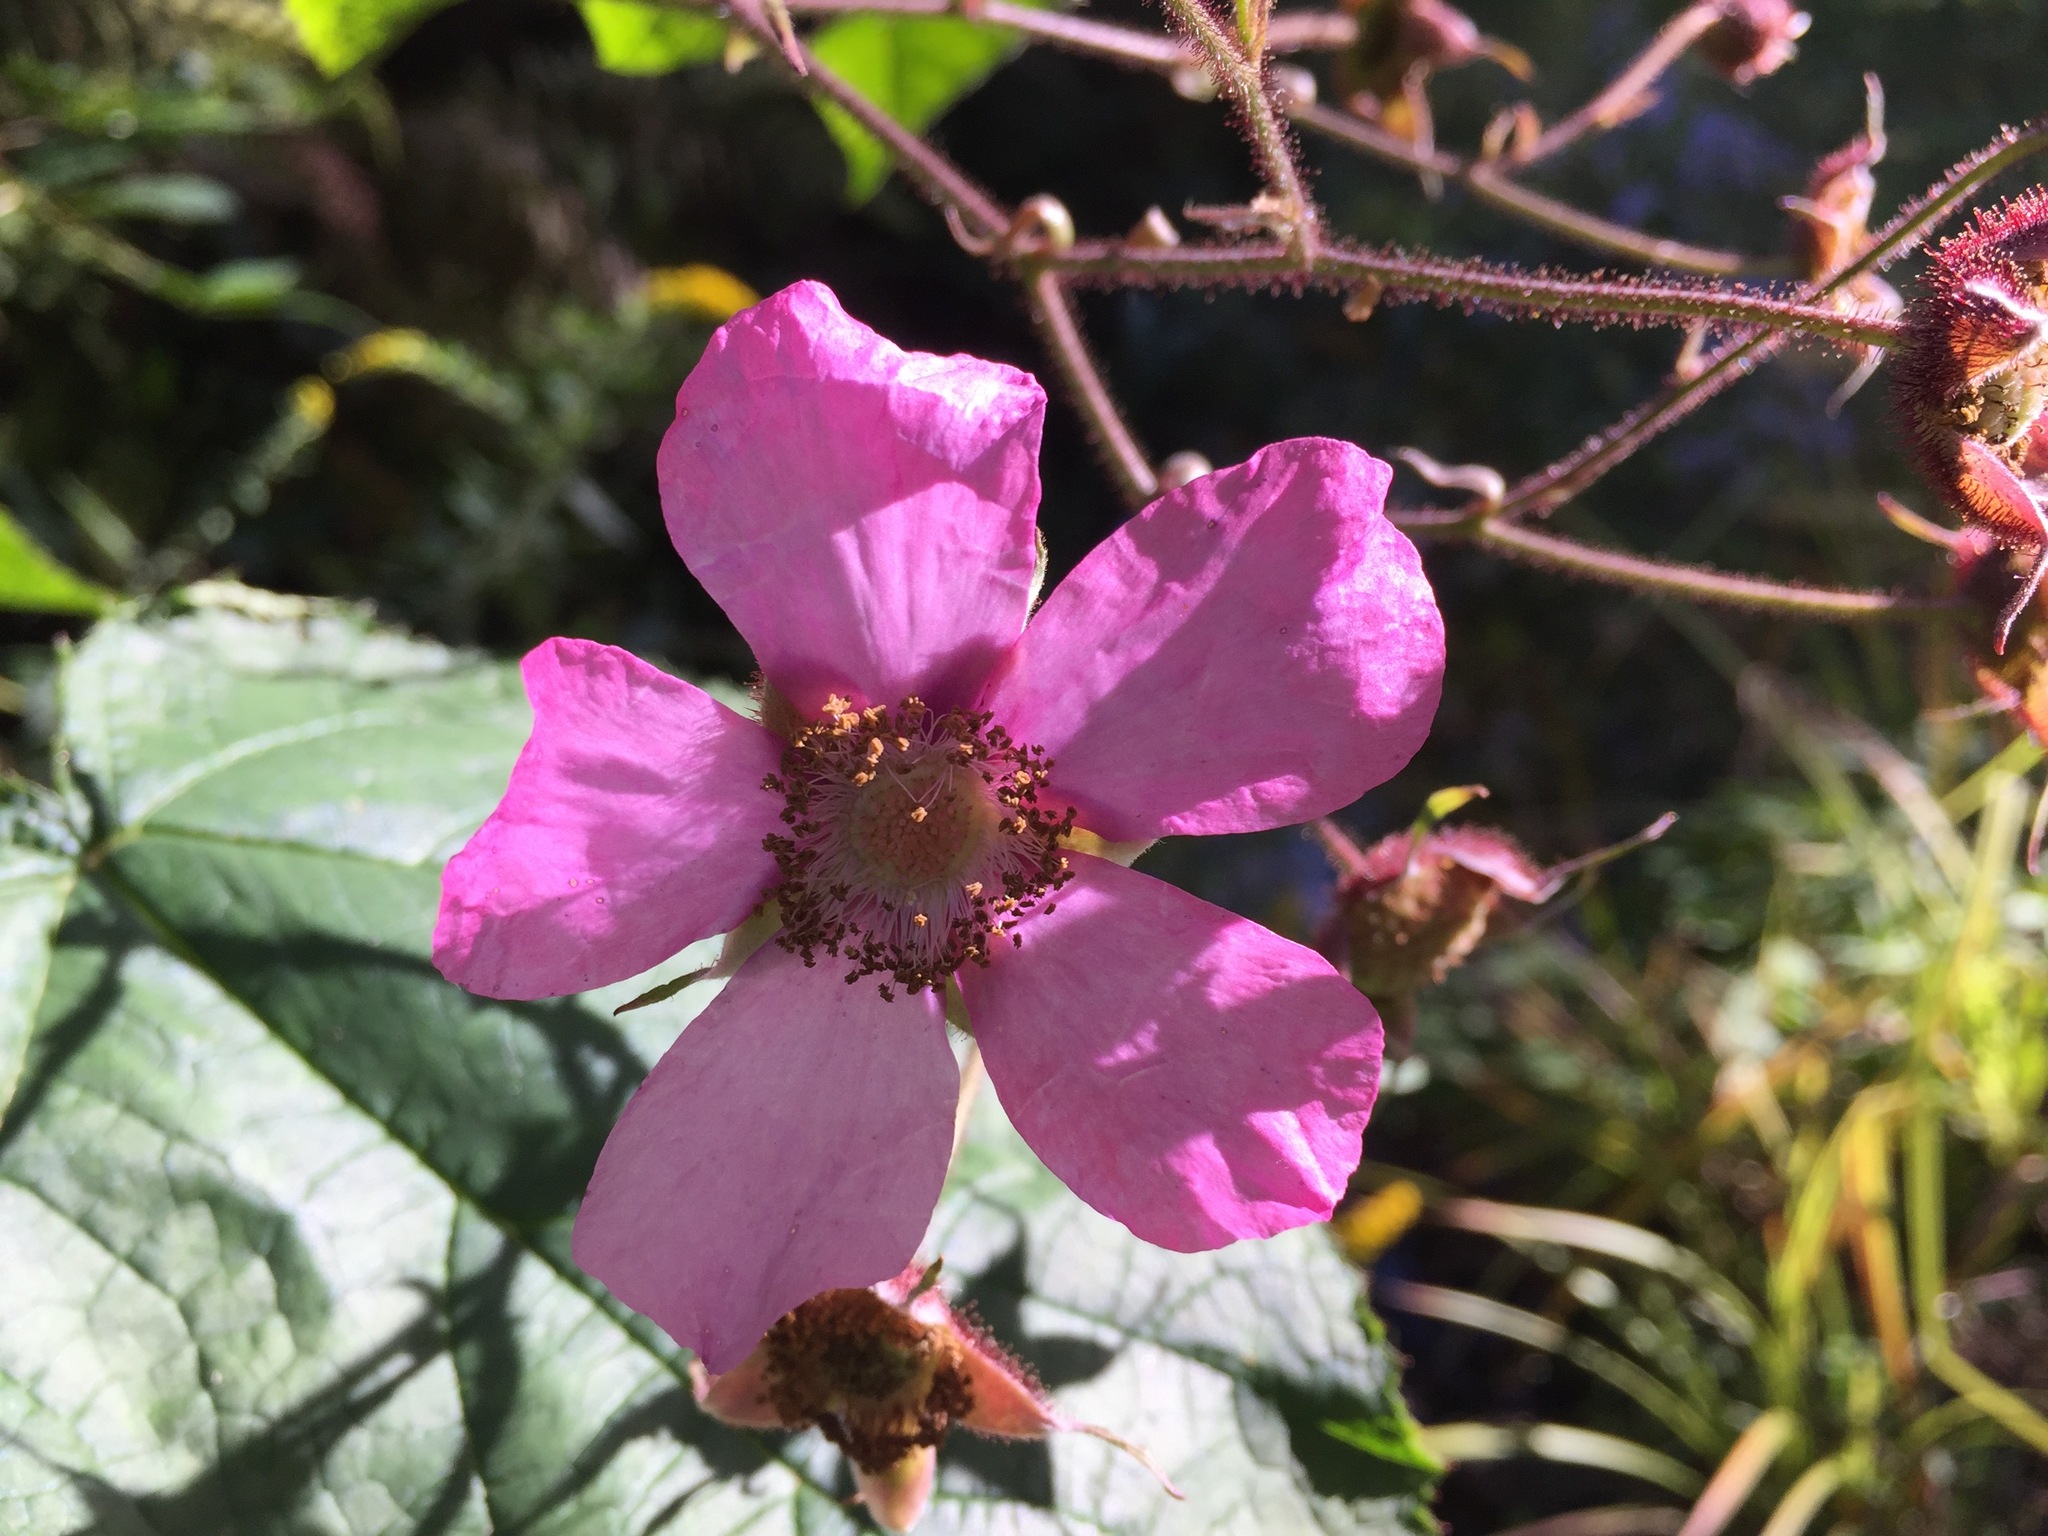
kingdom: Plantae
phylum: Tracheophyta
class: Magnoliopsida
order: Rosales
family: Rosaceae
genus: Rubus
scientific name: Rubus odoratus
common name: Purple-flowered raspberry
